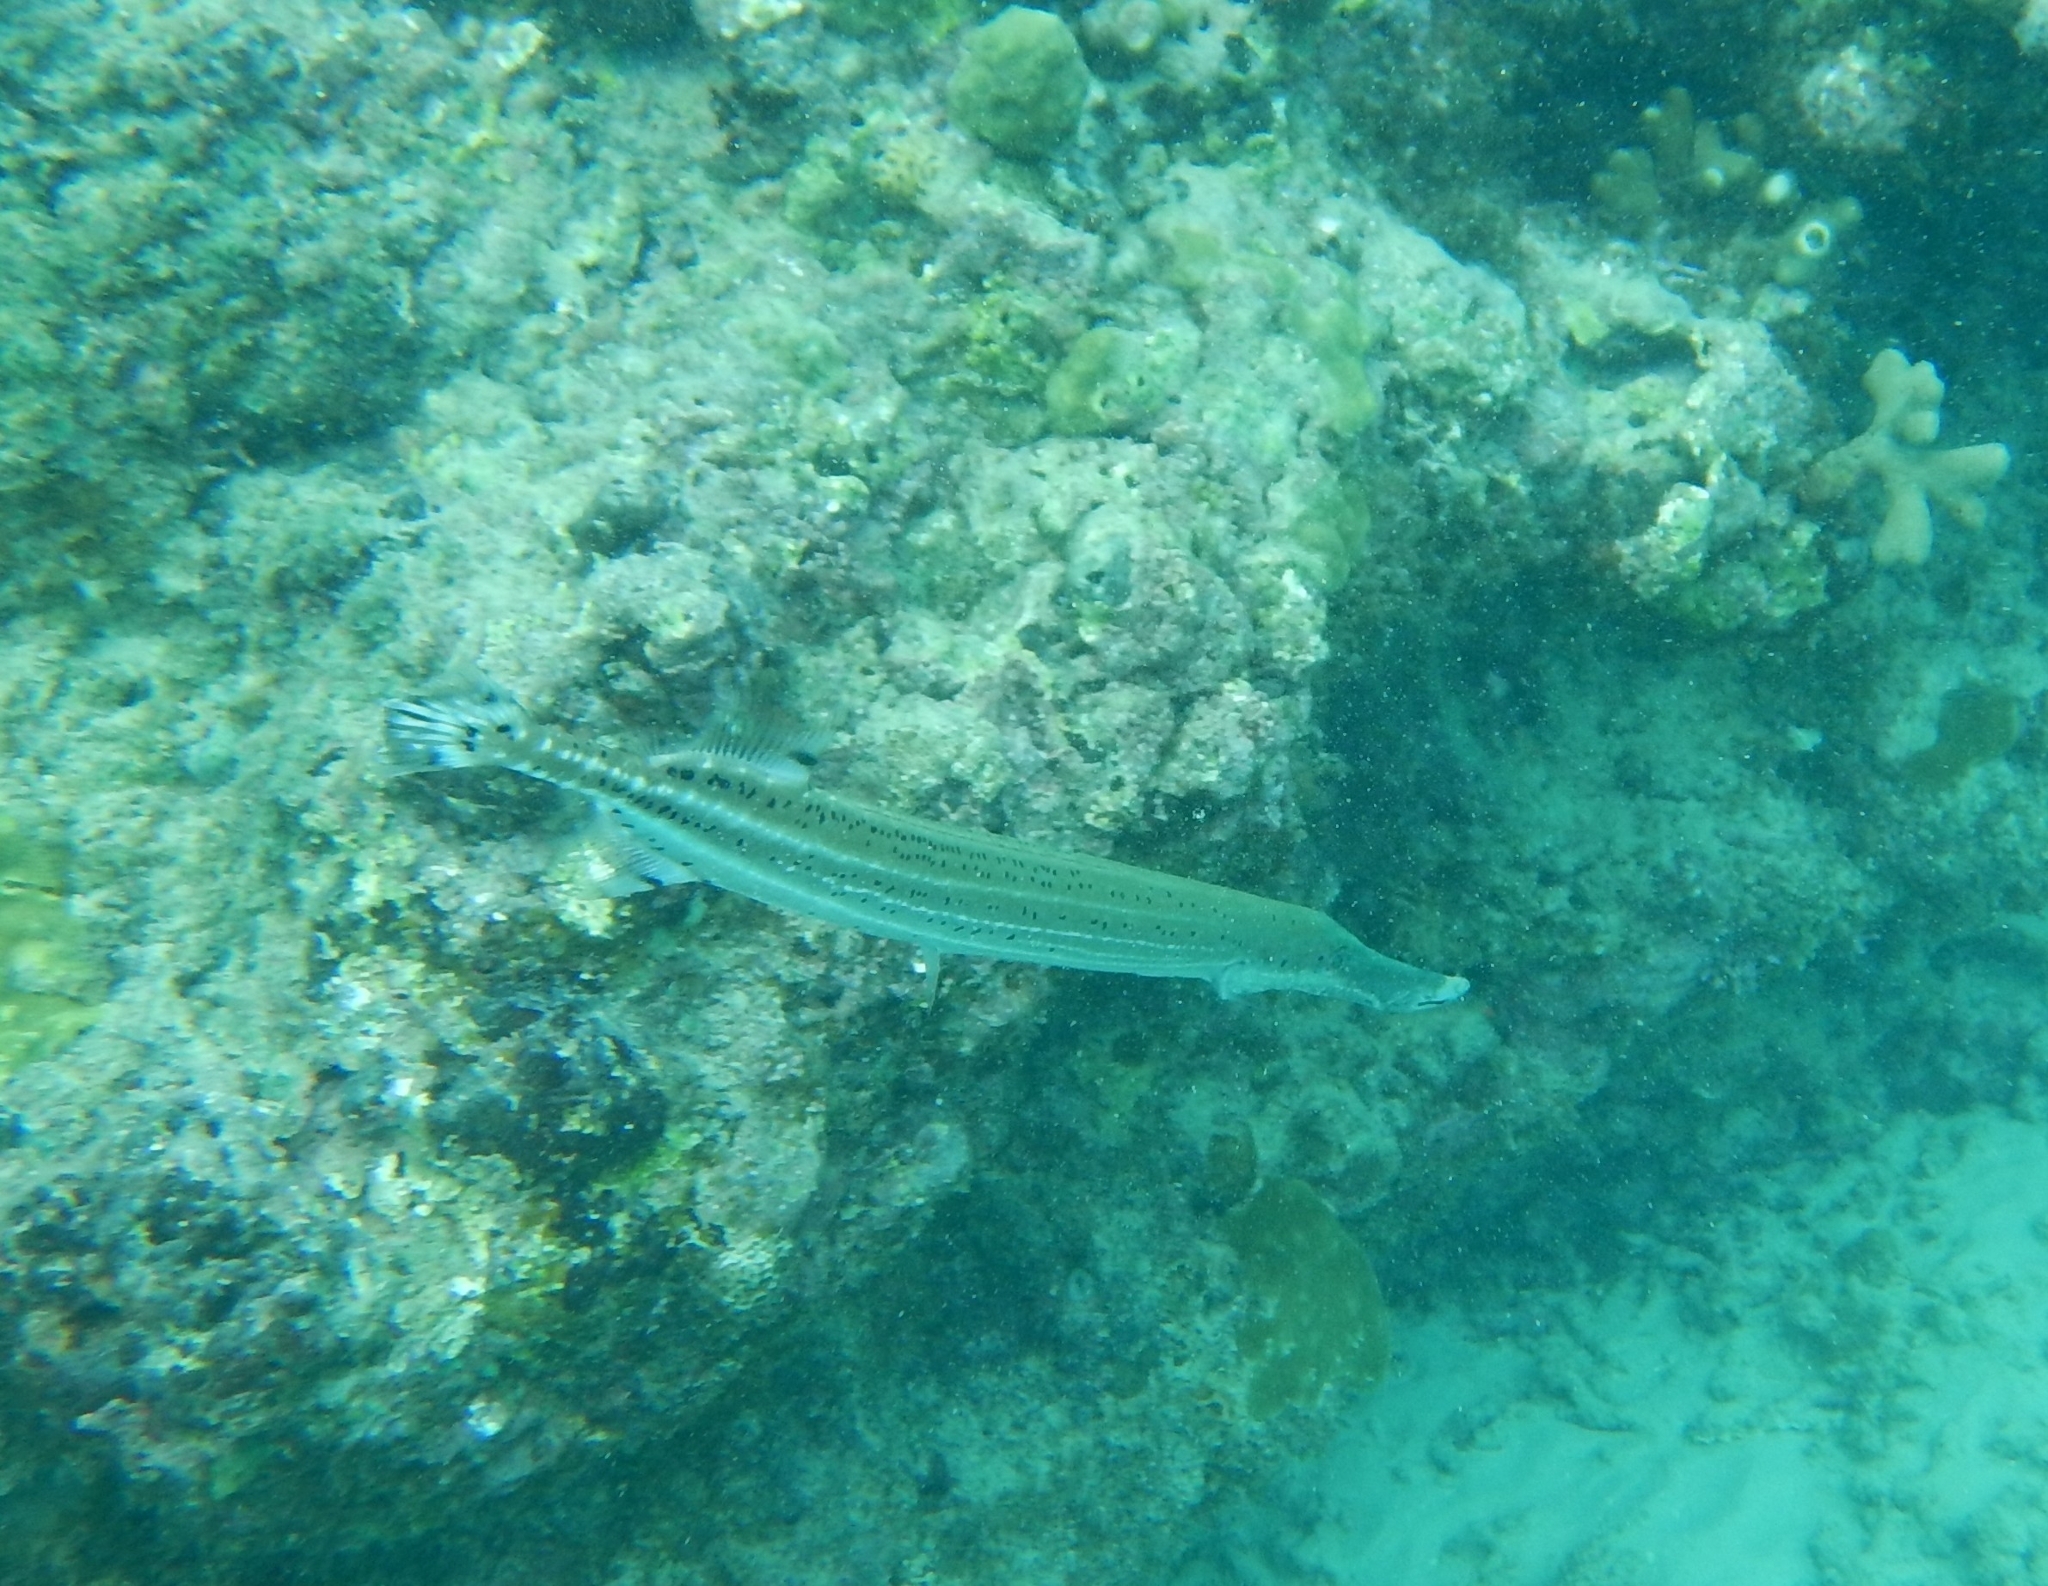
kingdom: Animalia
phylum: Chordata
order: Syngnathiformes
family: Aulostomidae
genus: Aulostomus
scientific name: Aulostomus maculatus
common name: West atlantic trumpetfish
